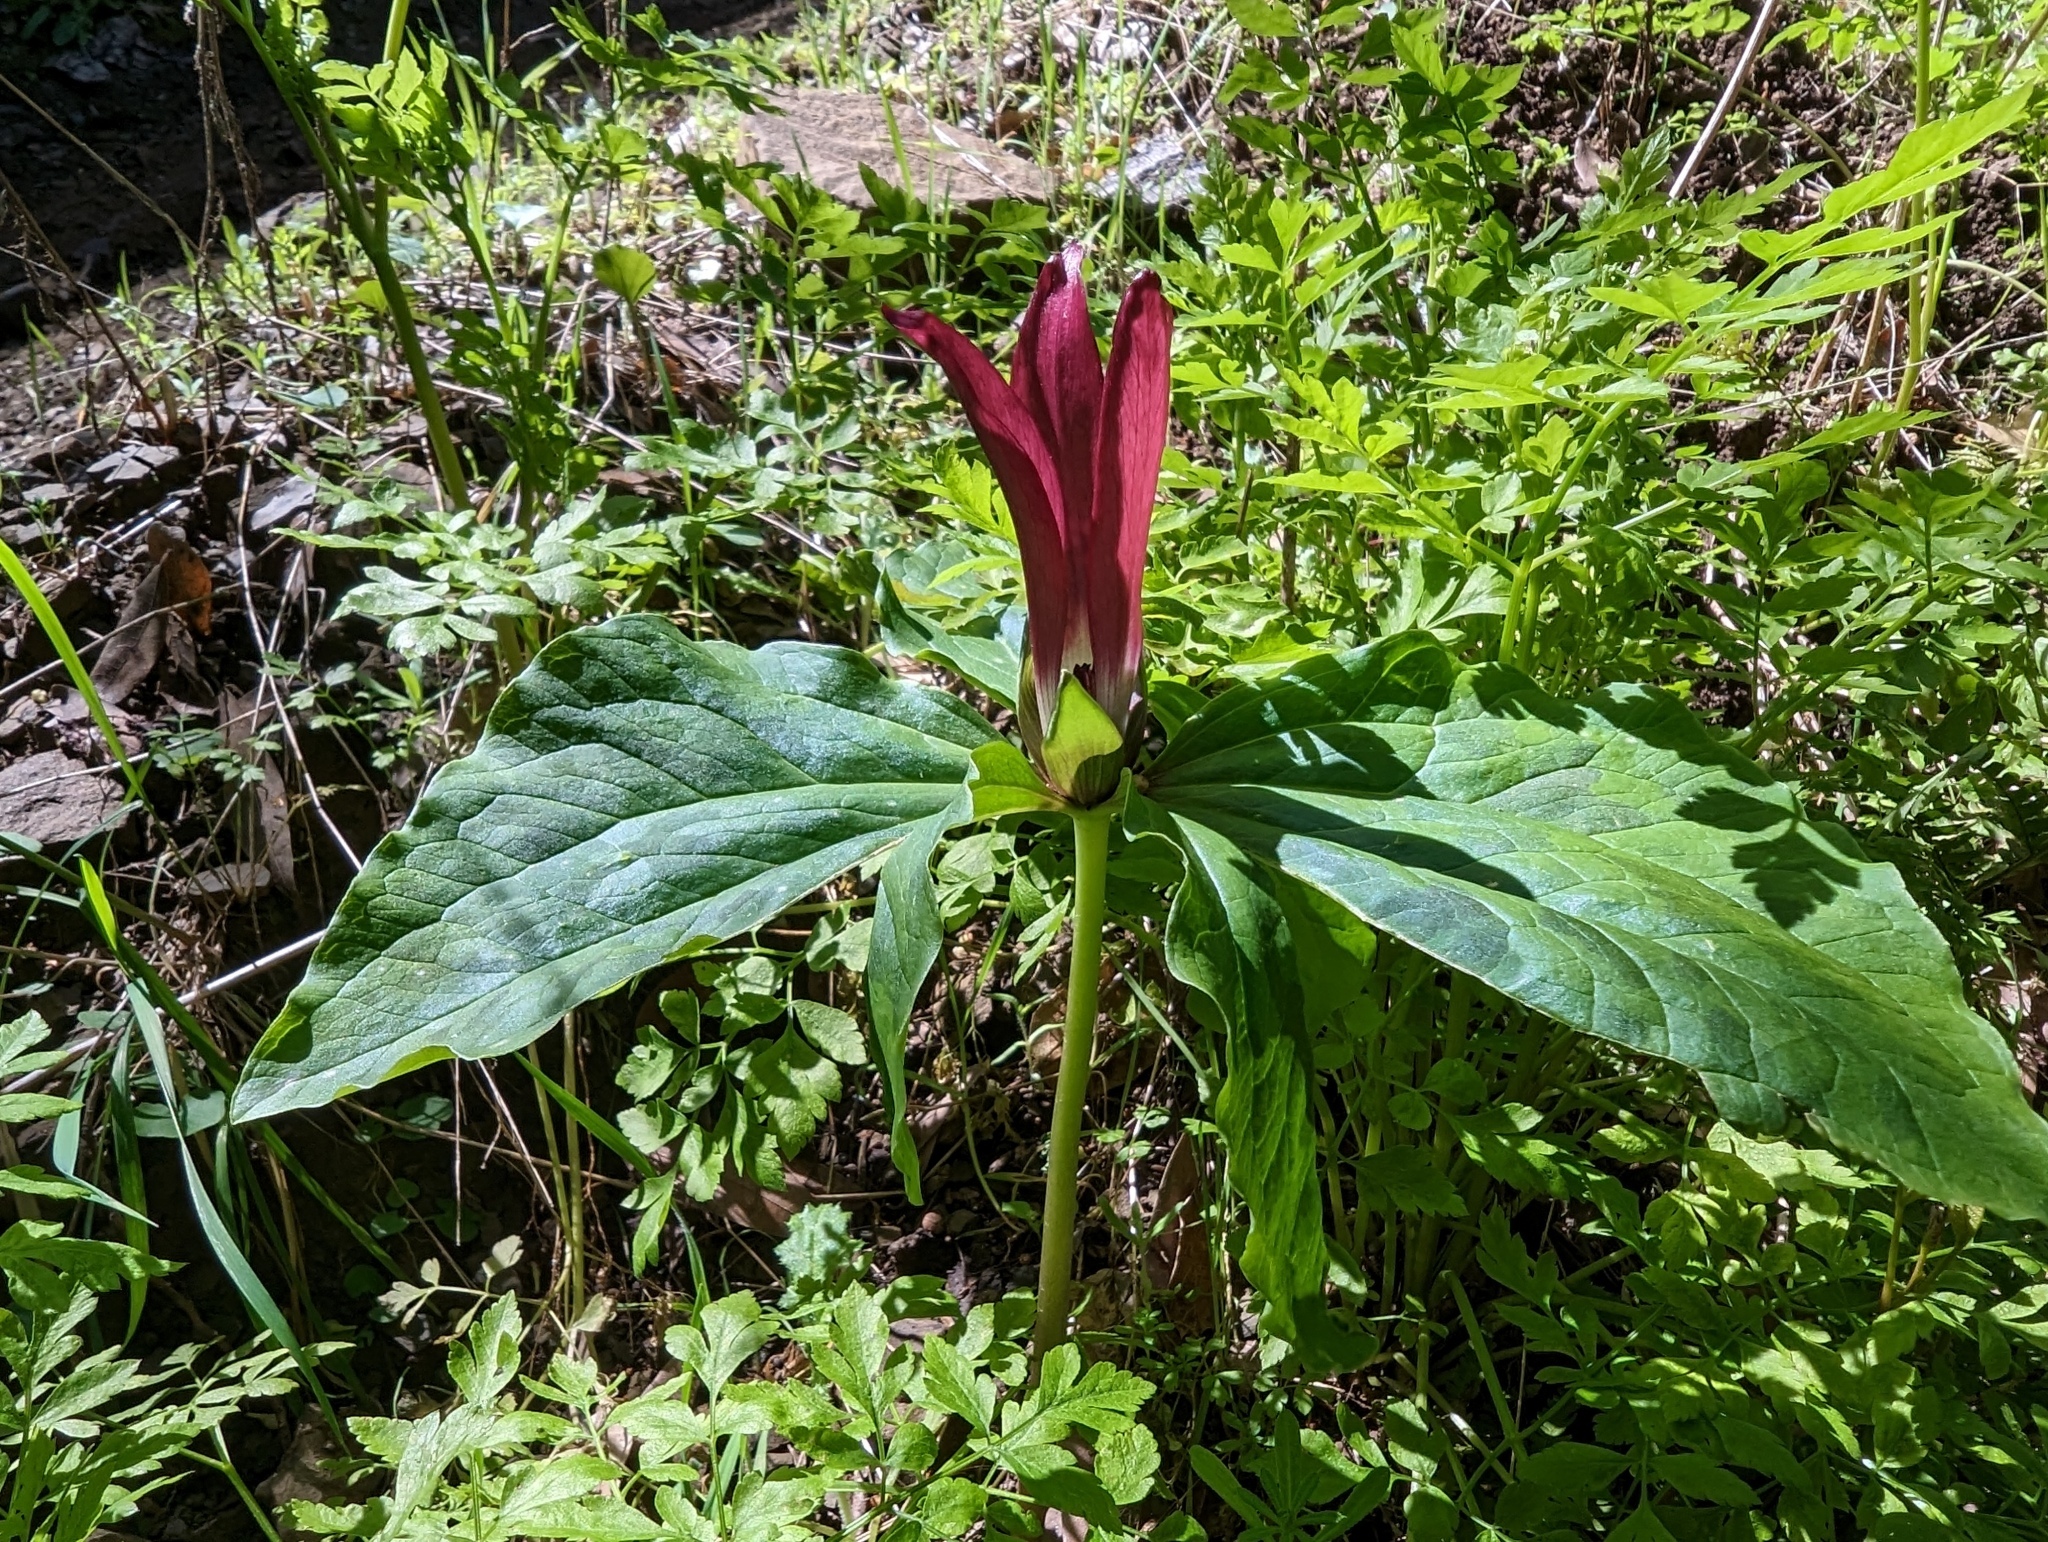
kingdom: Plantae
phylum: Tracheophyta
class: Liliopsida
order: Liliales
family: Melanthiaceae
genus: Trillium
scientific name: Trillium chloropetalum
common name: Giant trillium
